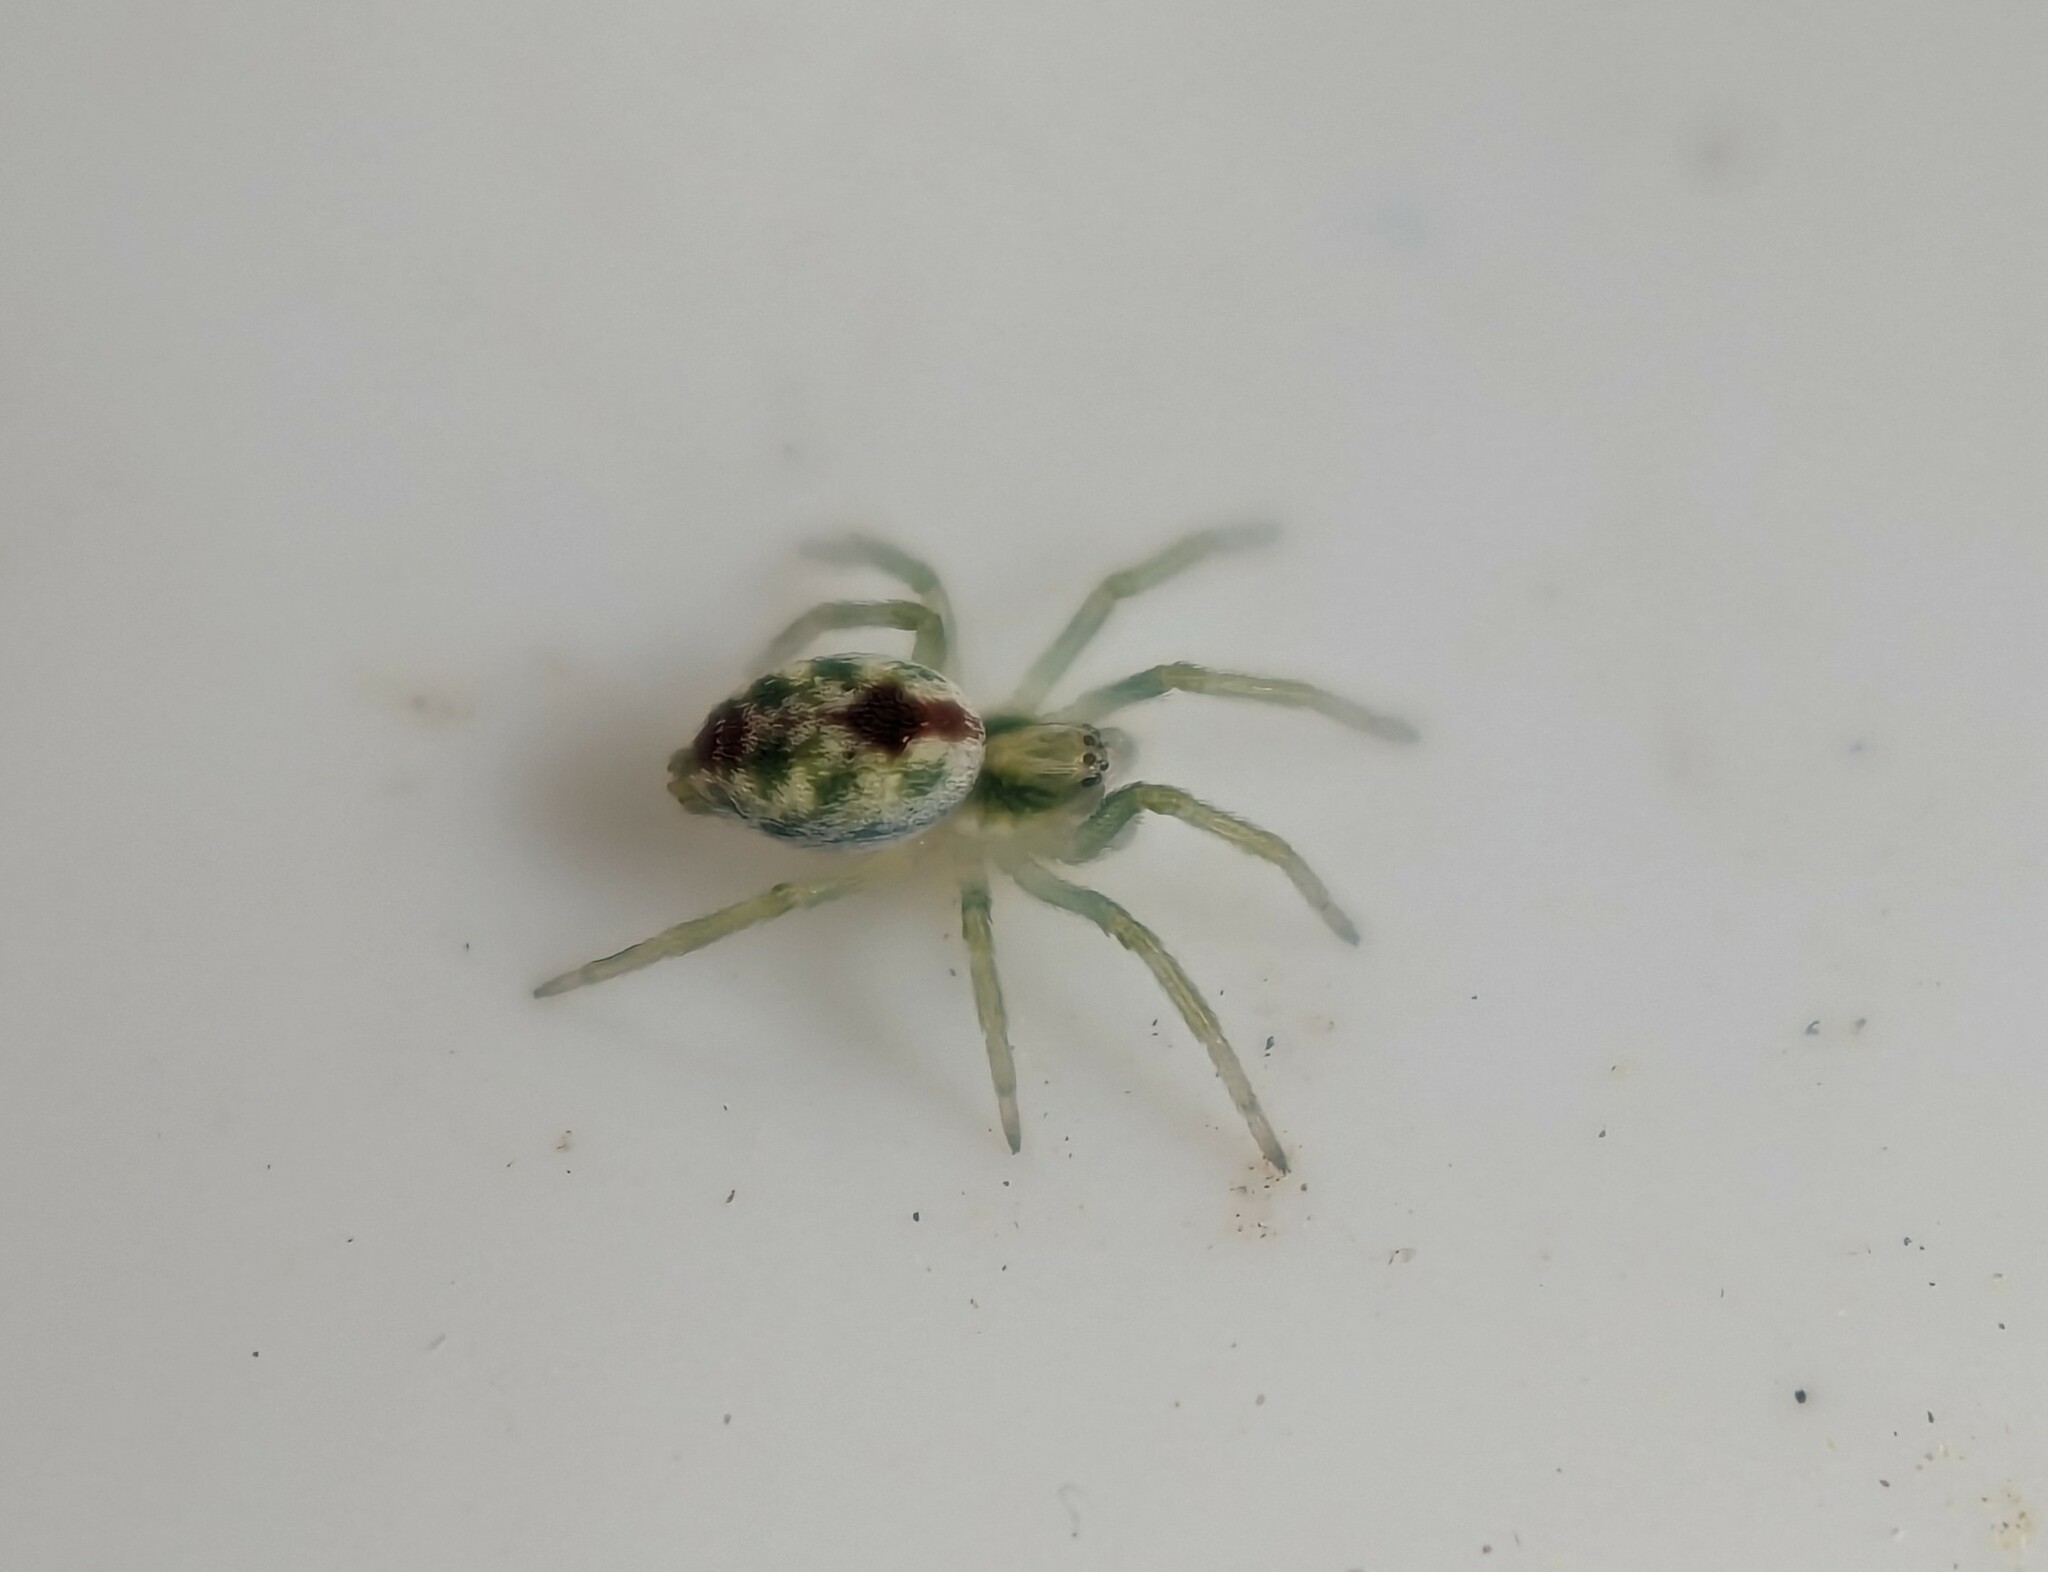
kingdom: Animalia
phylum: Arthropoda
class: Arachnida
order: Araneae
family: Dictynidae
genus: Nigma
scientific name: Nigma puella
